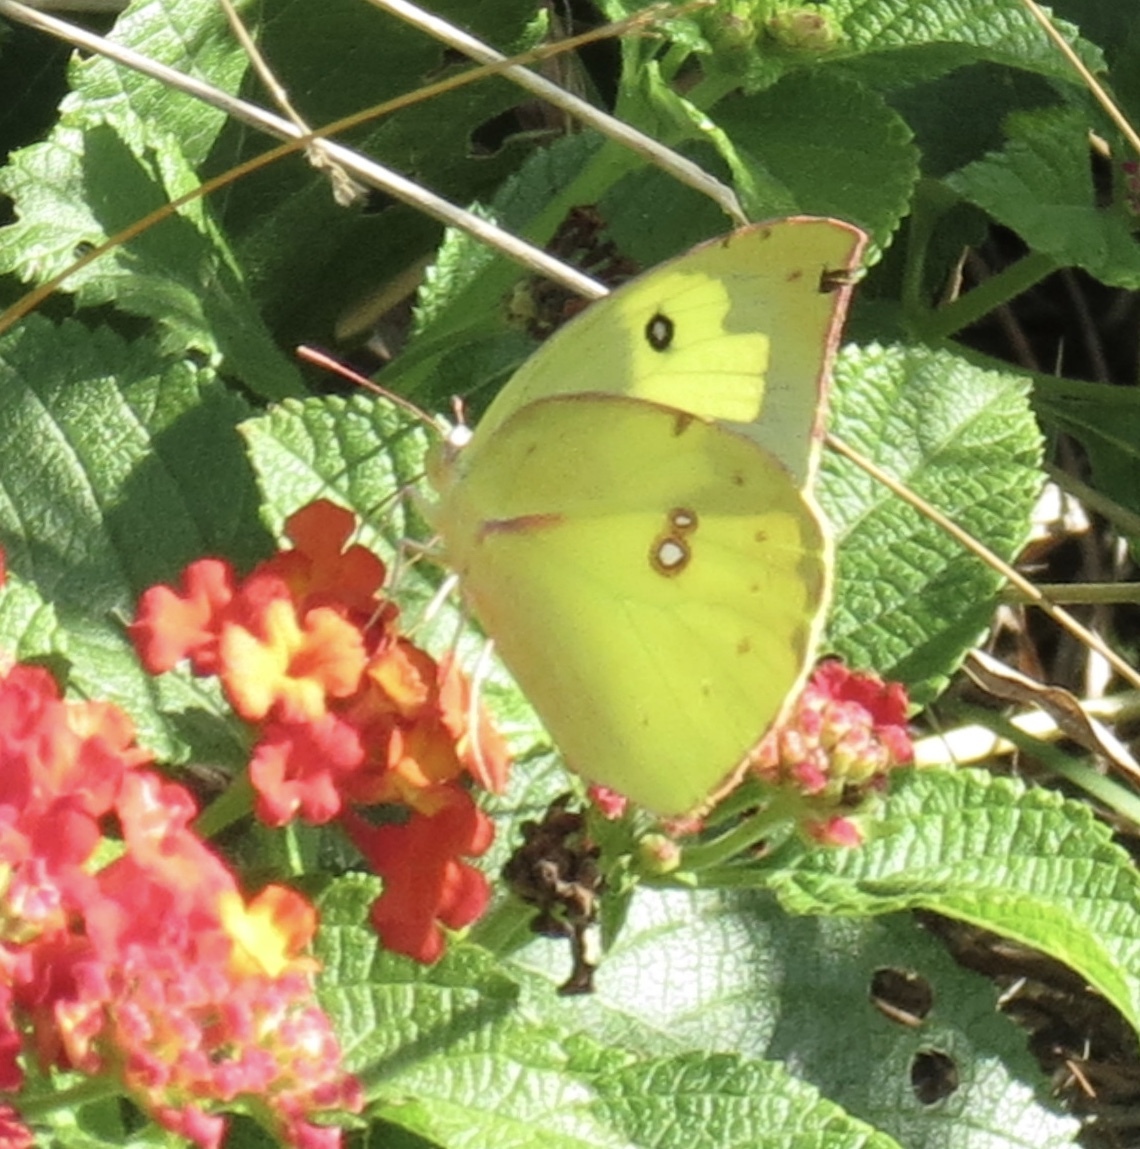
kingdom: Animalia
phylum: Arthropoda
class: Insecta
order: Lepidoptera
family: Pieridae
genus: Zerene
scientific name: Zerene cesonia
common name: Southern dogface
